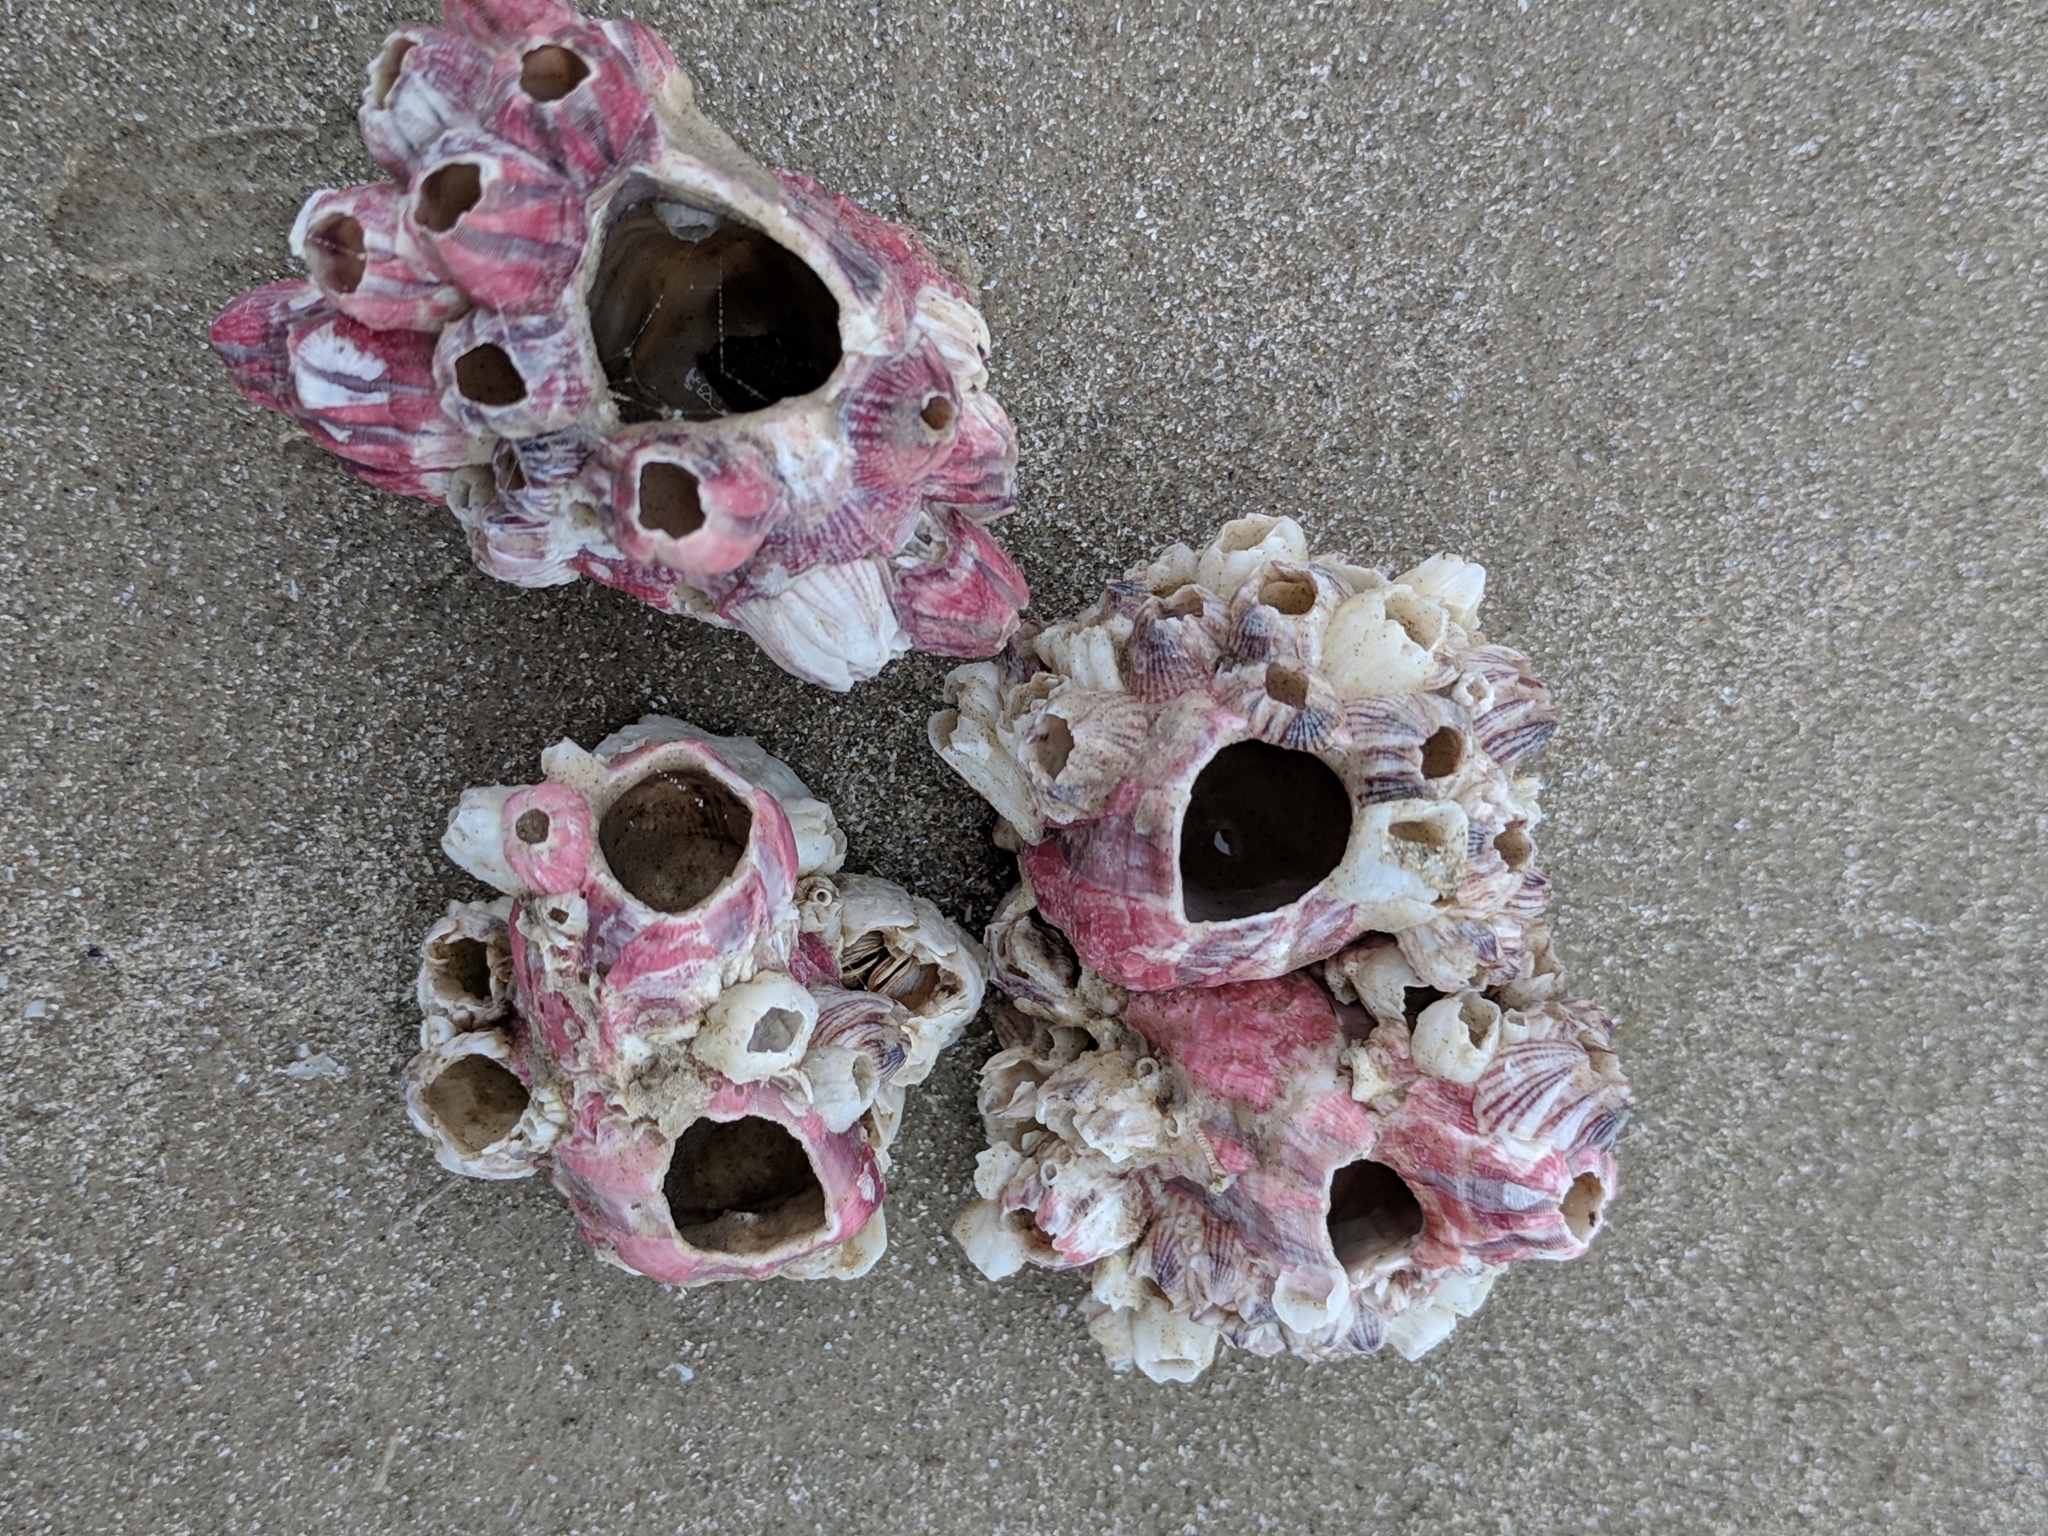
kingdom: Animalia
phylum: Arthropoda
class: Maxillopoda
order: Sessilia
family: Balanidae
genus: Megabalanus
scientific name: Megabalanus tintinnabulum
